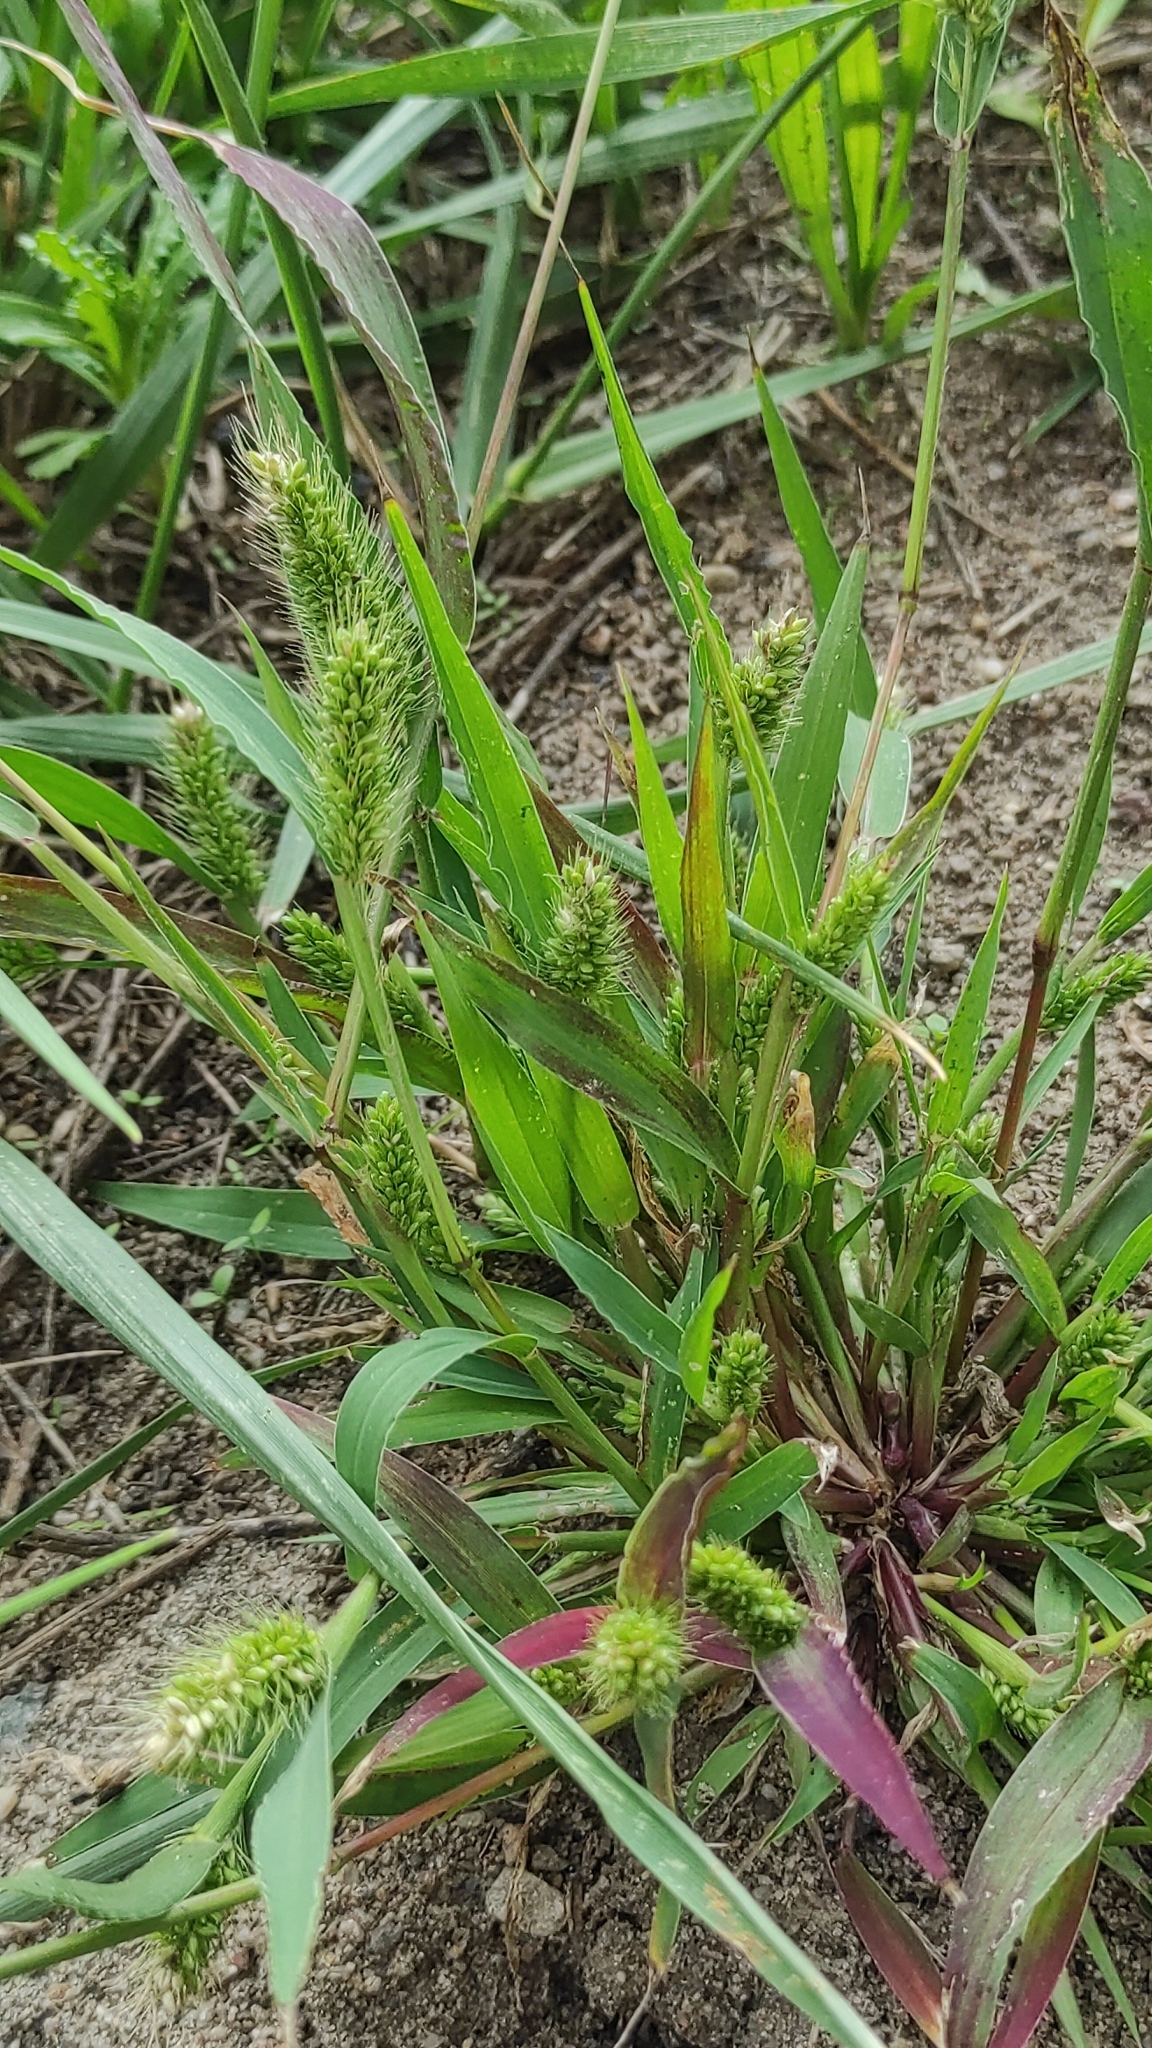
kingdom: Plantae
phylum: Tracheophyta
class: Liliopsida
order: Poales
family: Poaceae
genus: Setaria
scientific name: Setaria viridis
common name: Green bristlegrass
